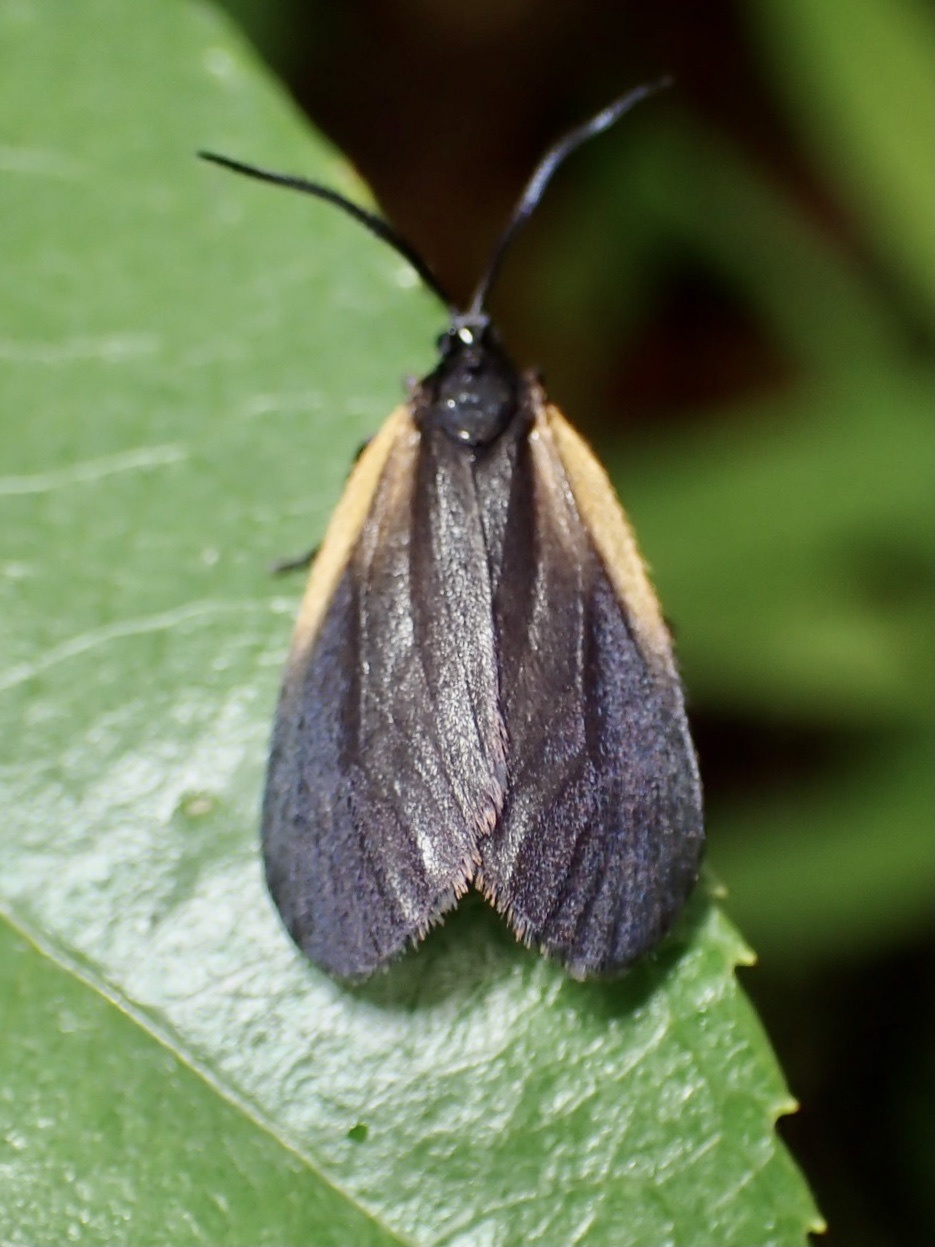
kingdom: Animalia
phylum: Arthropoda
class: Insecta
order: Lepidoptera
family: Zygaenidae
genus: Malthaca
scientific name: Malthaca dimidiata
